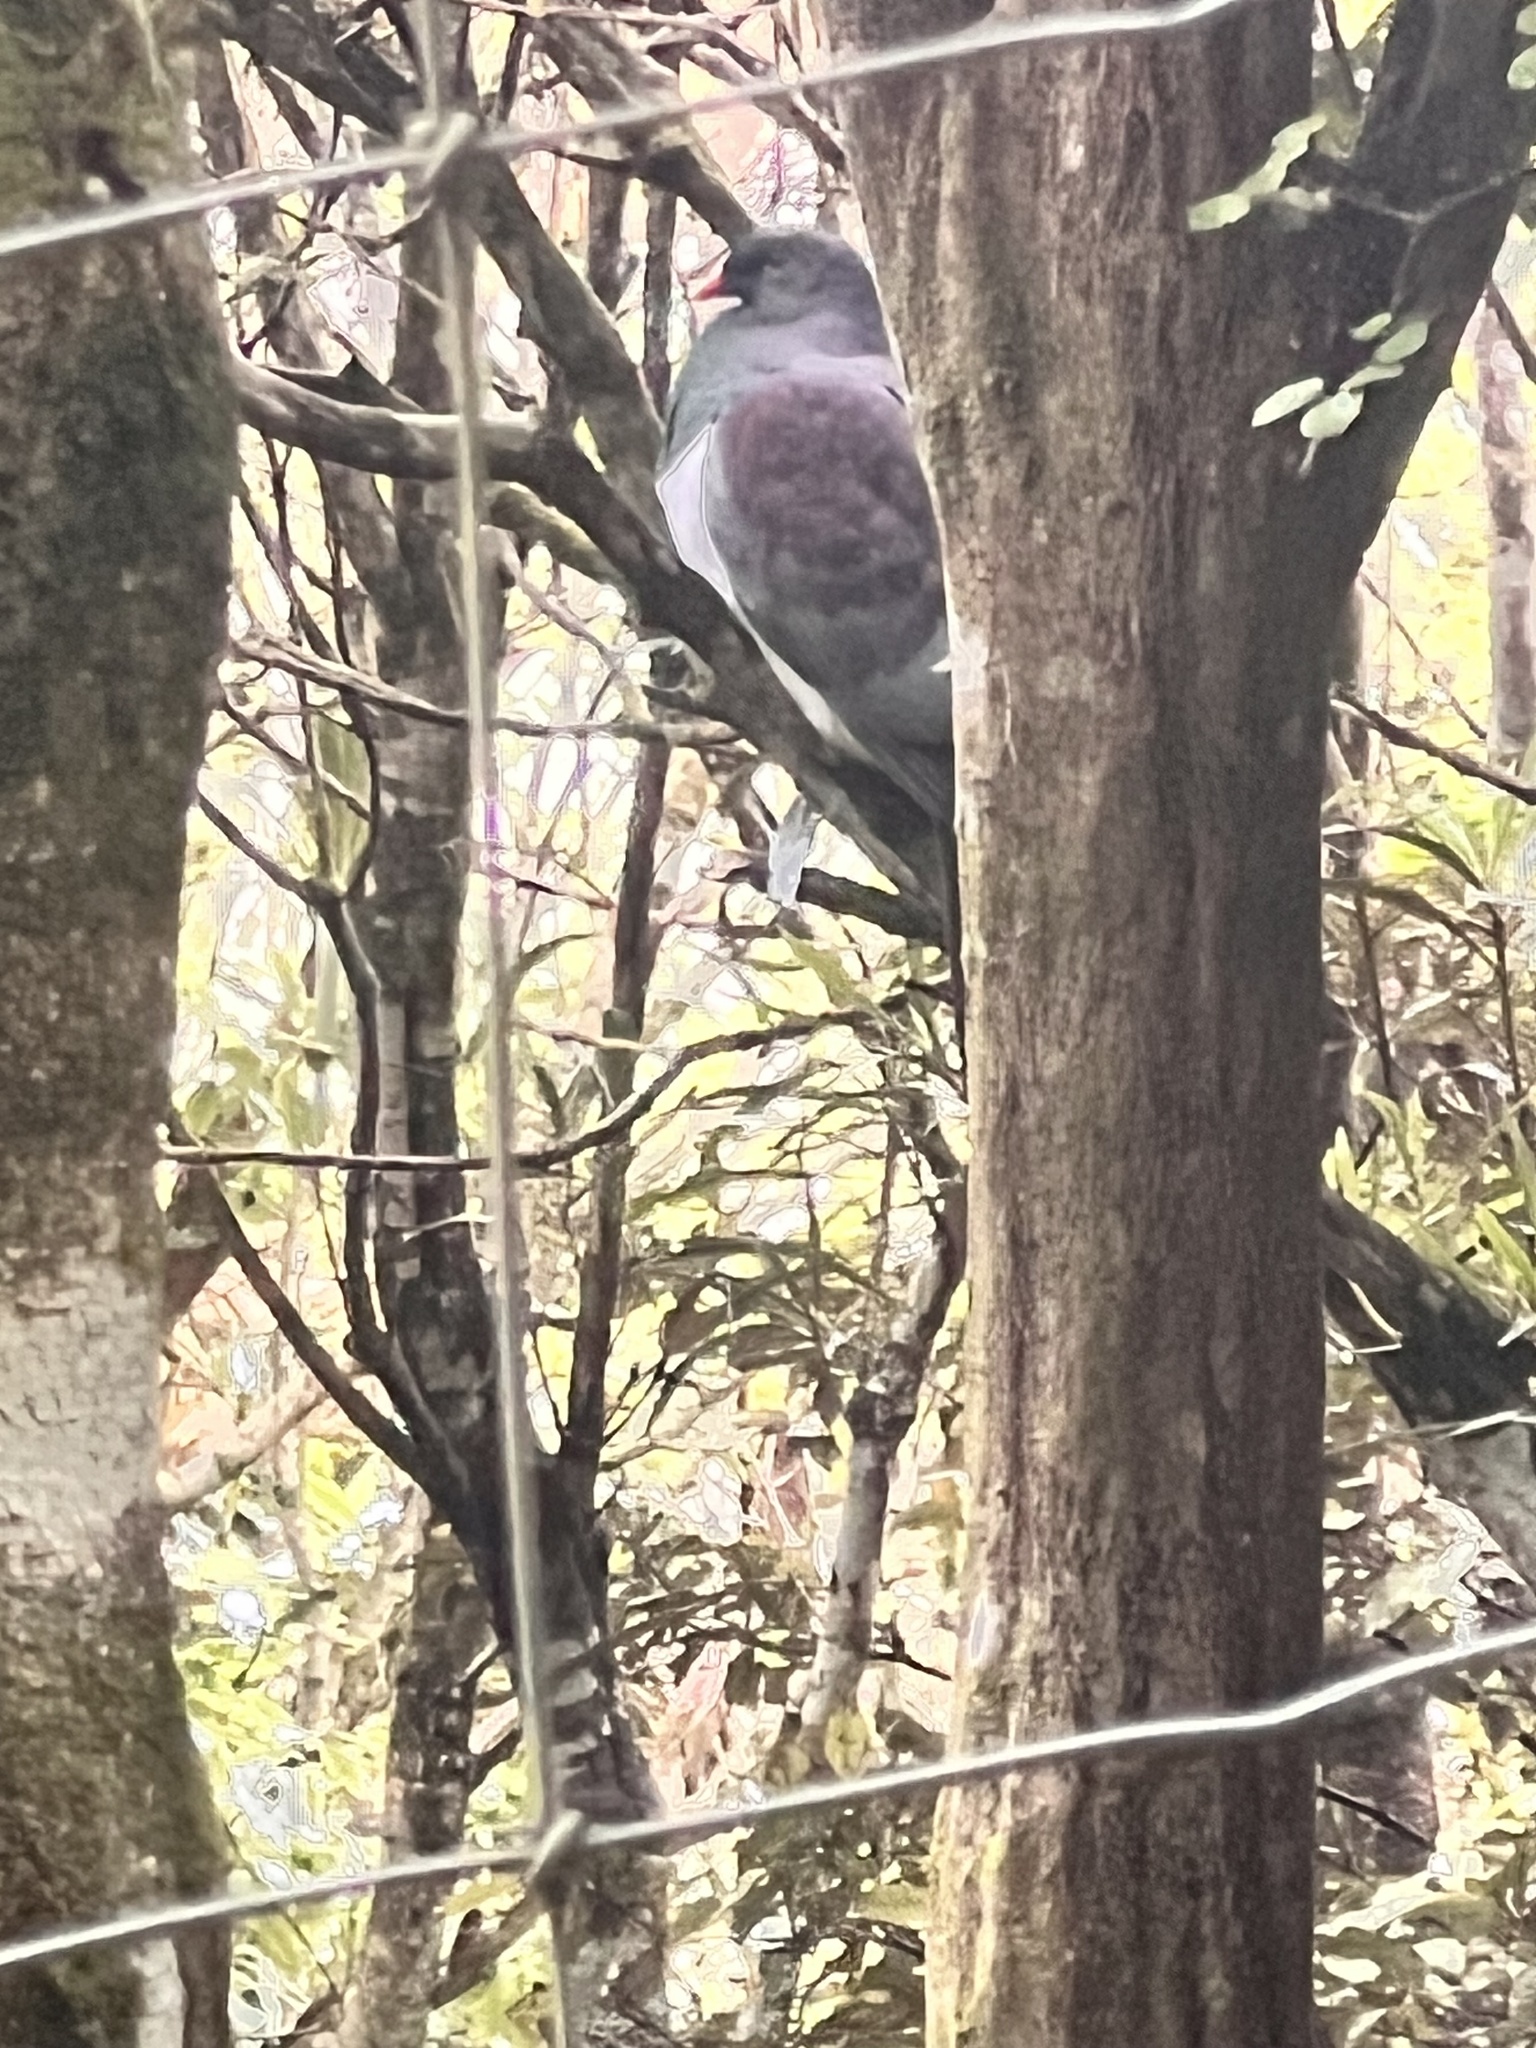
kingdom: Animalia
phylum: Chordata
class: Aves
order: Columbiformes
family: Columbidae
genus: Hemiphaga
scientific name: Hemiphaga novaeseelandiae
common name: New zealand pigeon
